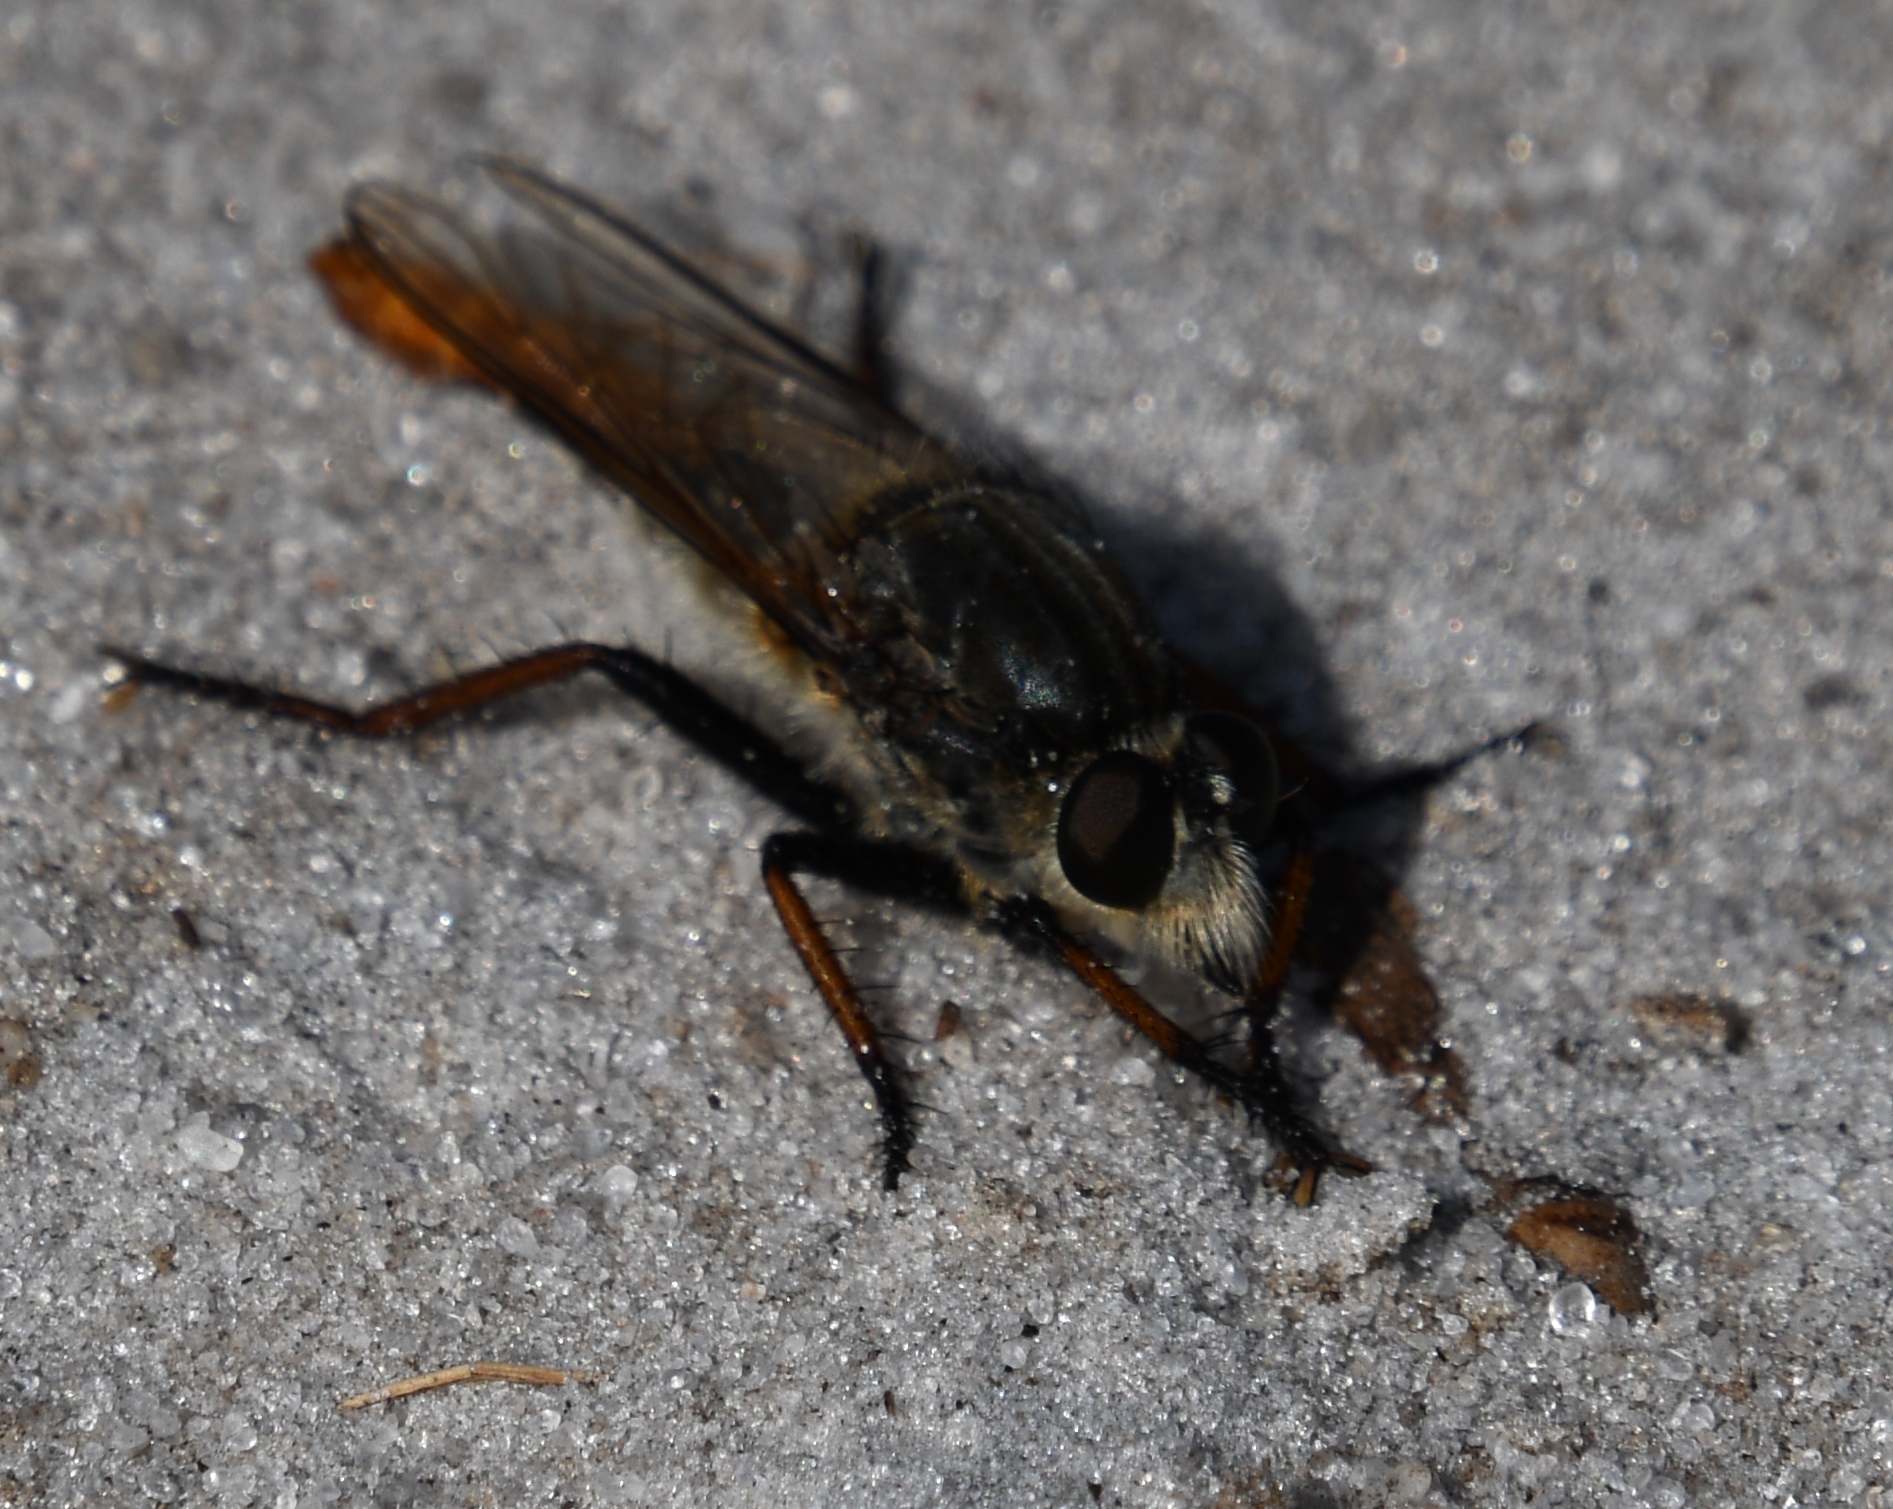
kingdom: Animalia
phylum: Arthropoda
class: Insecta
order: Diptera
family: Asilidae
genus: Proctacanthus
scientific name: Proctacanthus fulviventris
